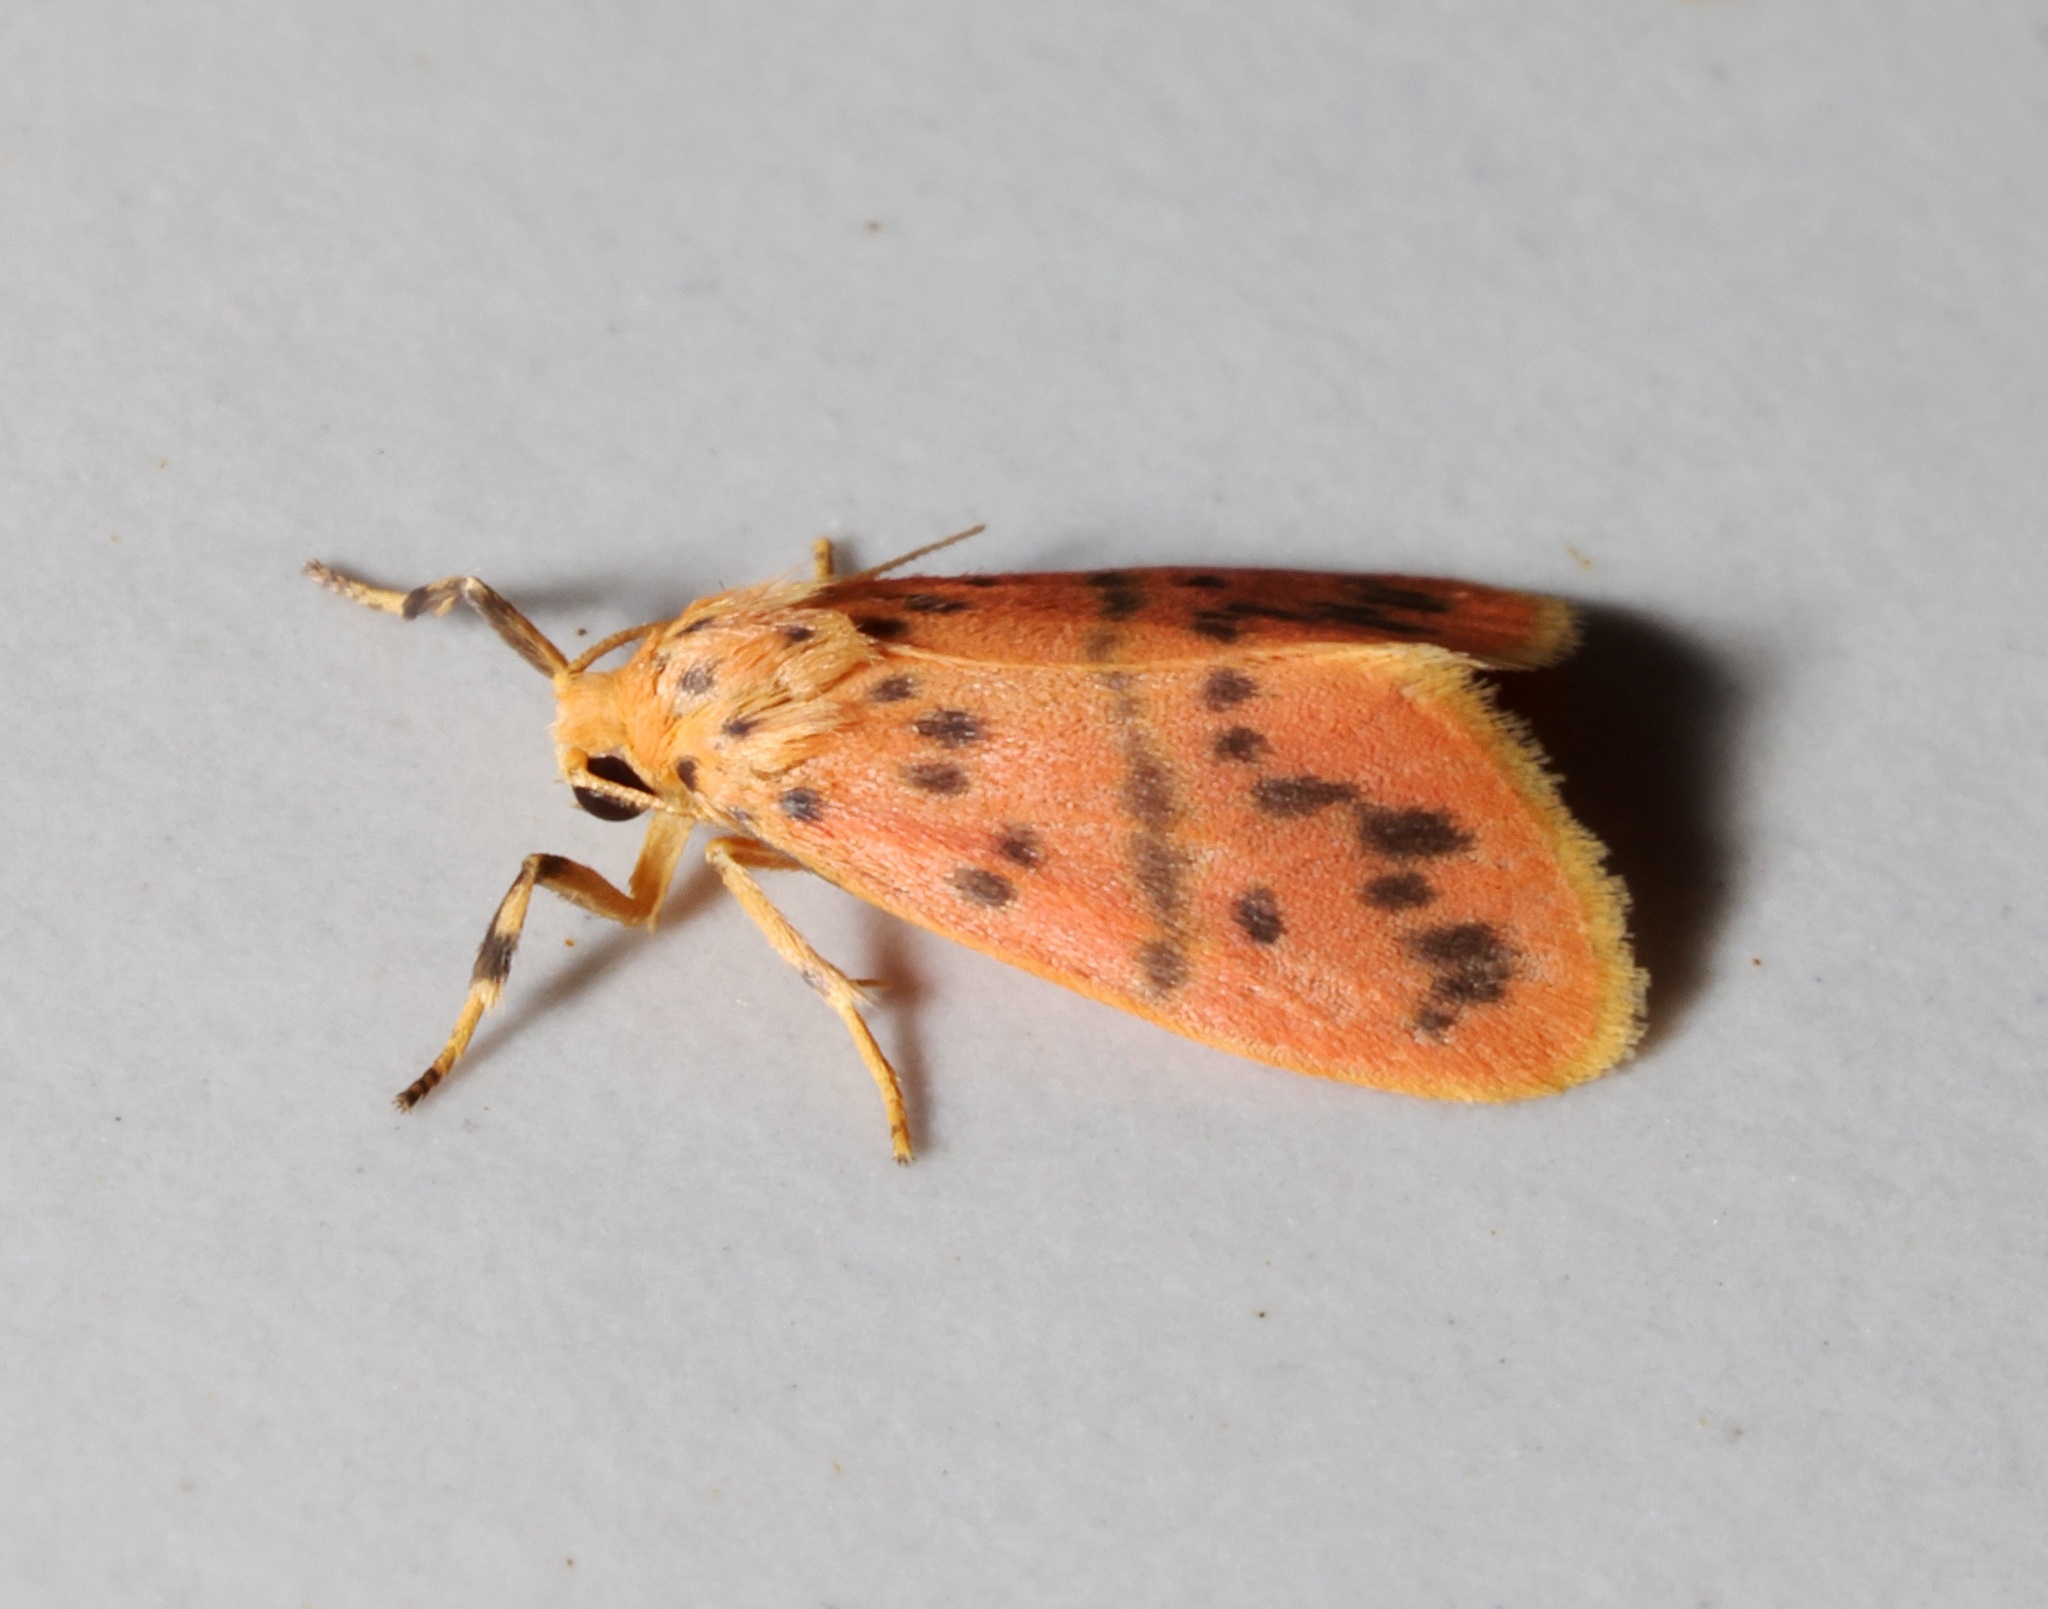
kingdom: Animalia
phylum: Arthropoda
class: Insecta
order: Lepidoptera
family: Erebidae
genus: Arctelene
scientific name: Arctelene arcuata
